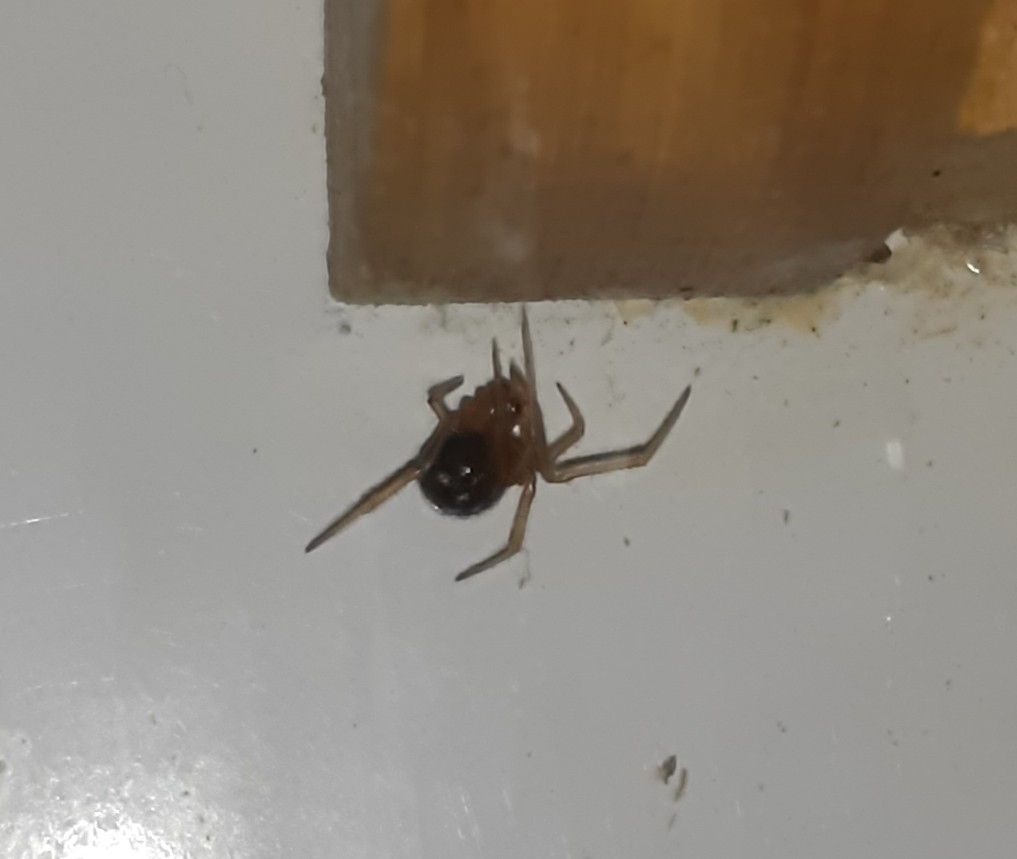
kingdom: Animalia
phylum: Arthropoda
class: Arachnida
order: Araneae
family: Theridiidae
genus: Nesticodes
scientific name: Nesticodes rufipes
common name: Cobweb spiders
